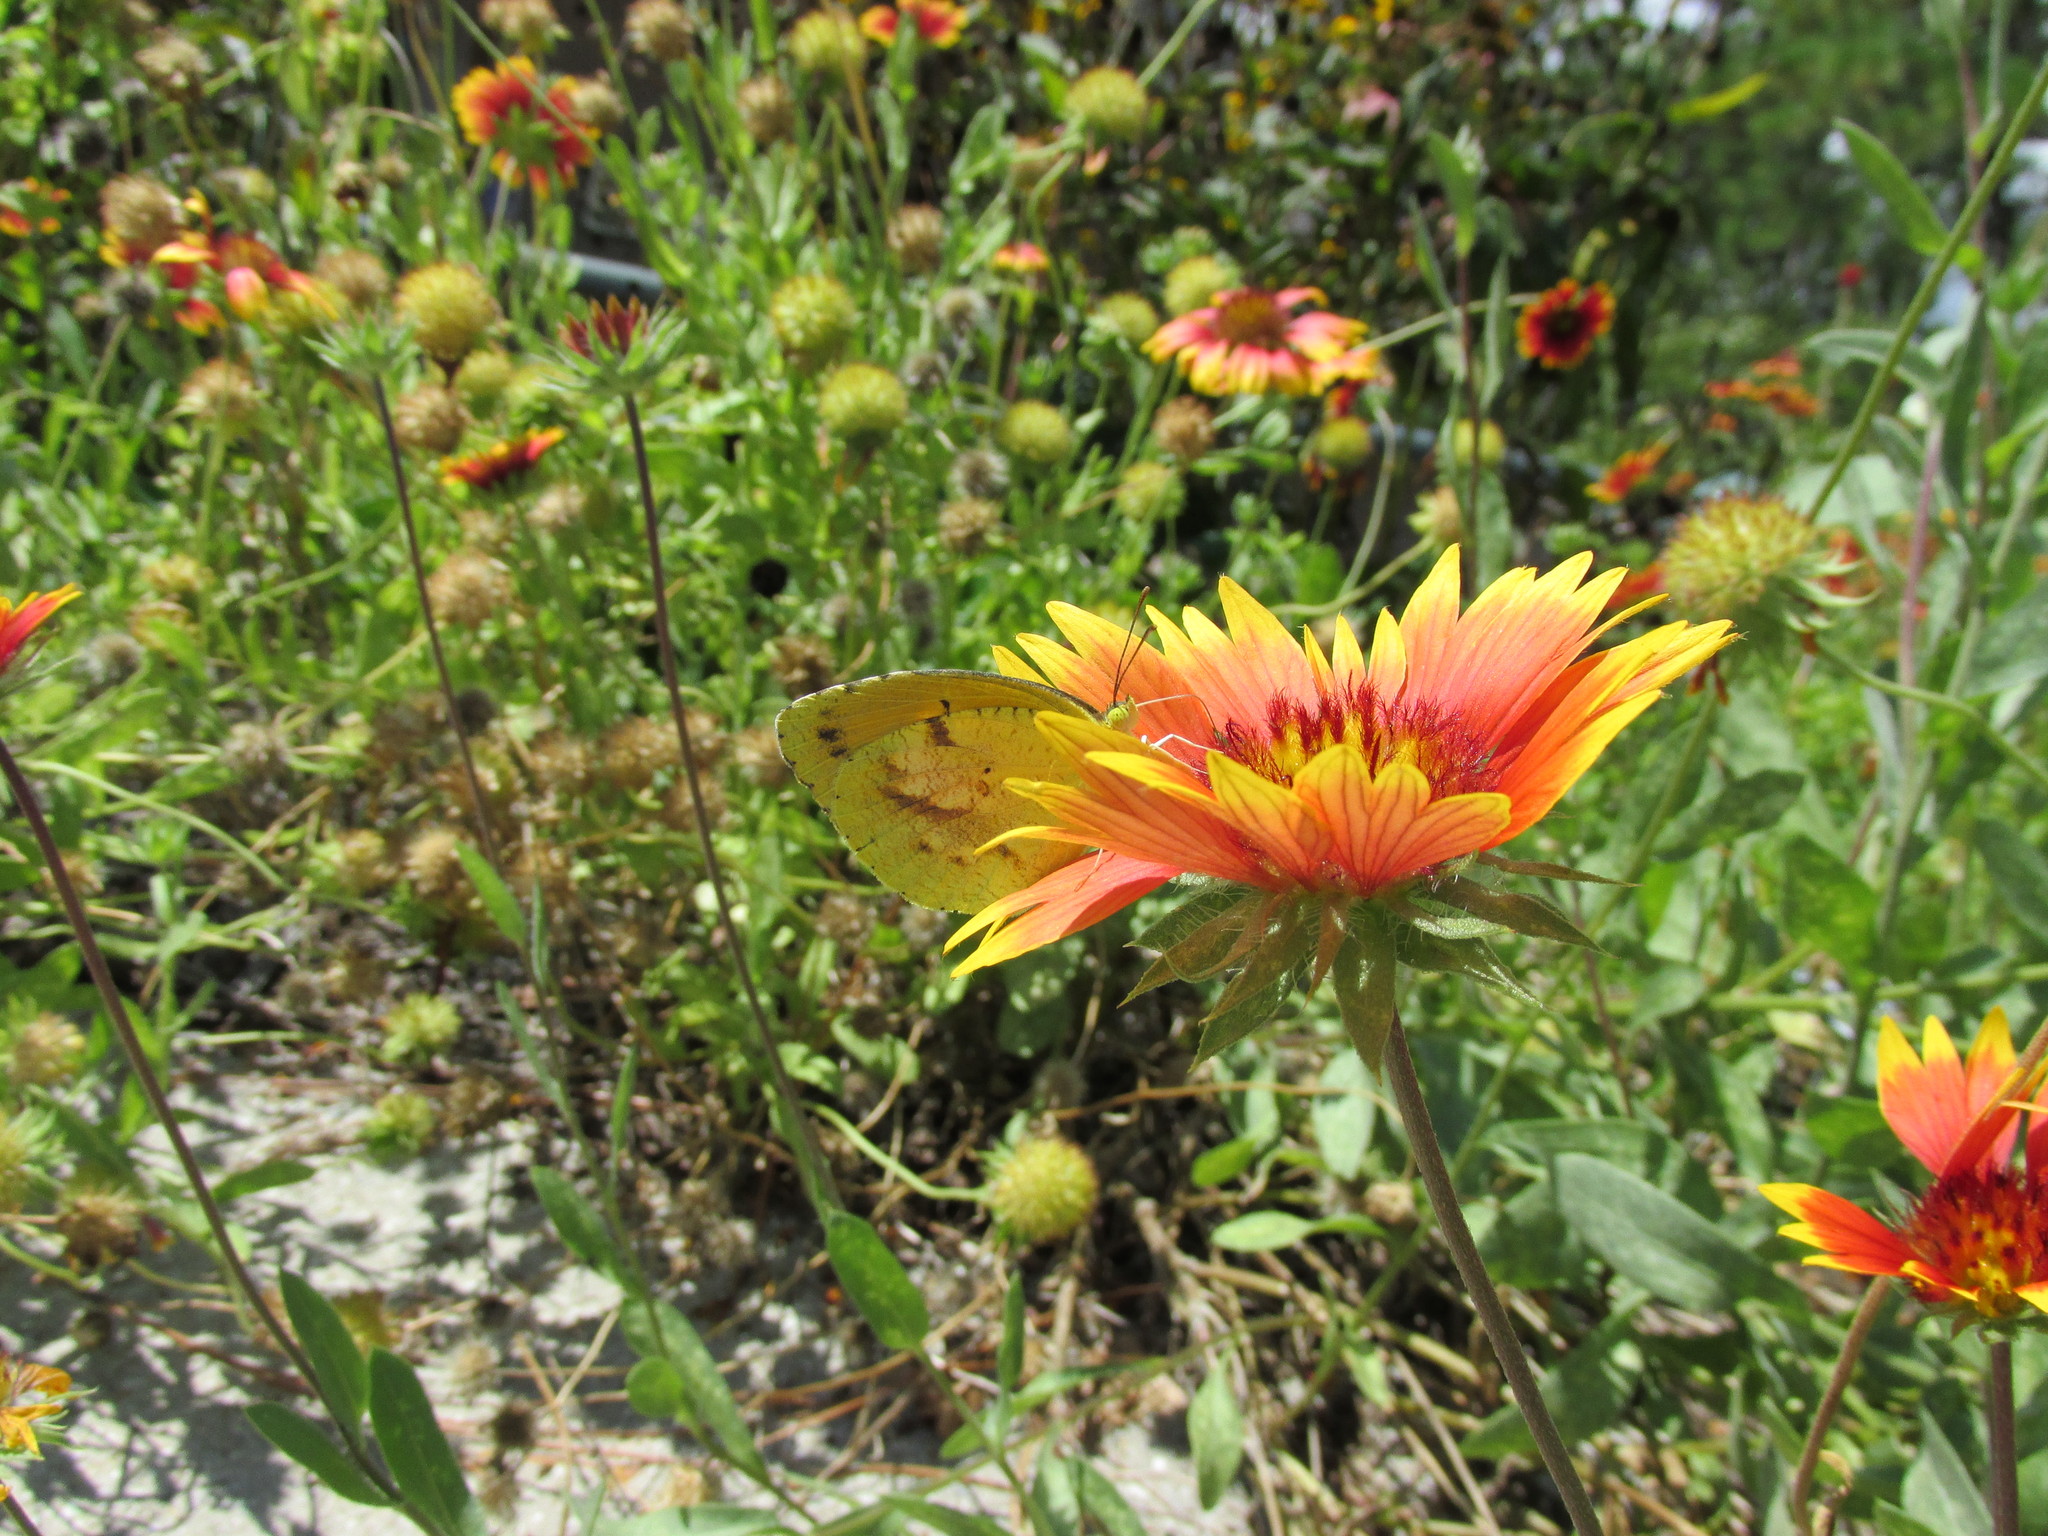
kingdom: Animalia
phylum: Arthropoda
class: Insecta
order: Lepidoptera
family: Pieridae
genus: Abaeis
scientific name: Abaeis nicippe
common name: Sleepy orange
